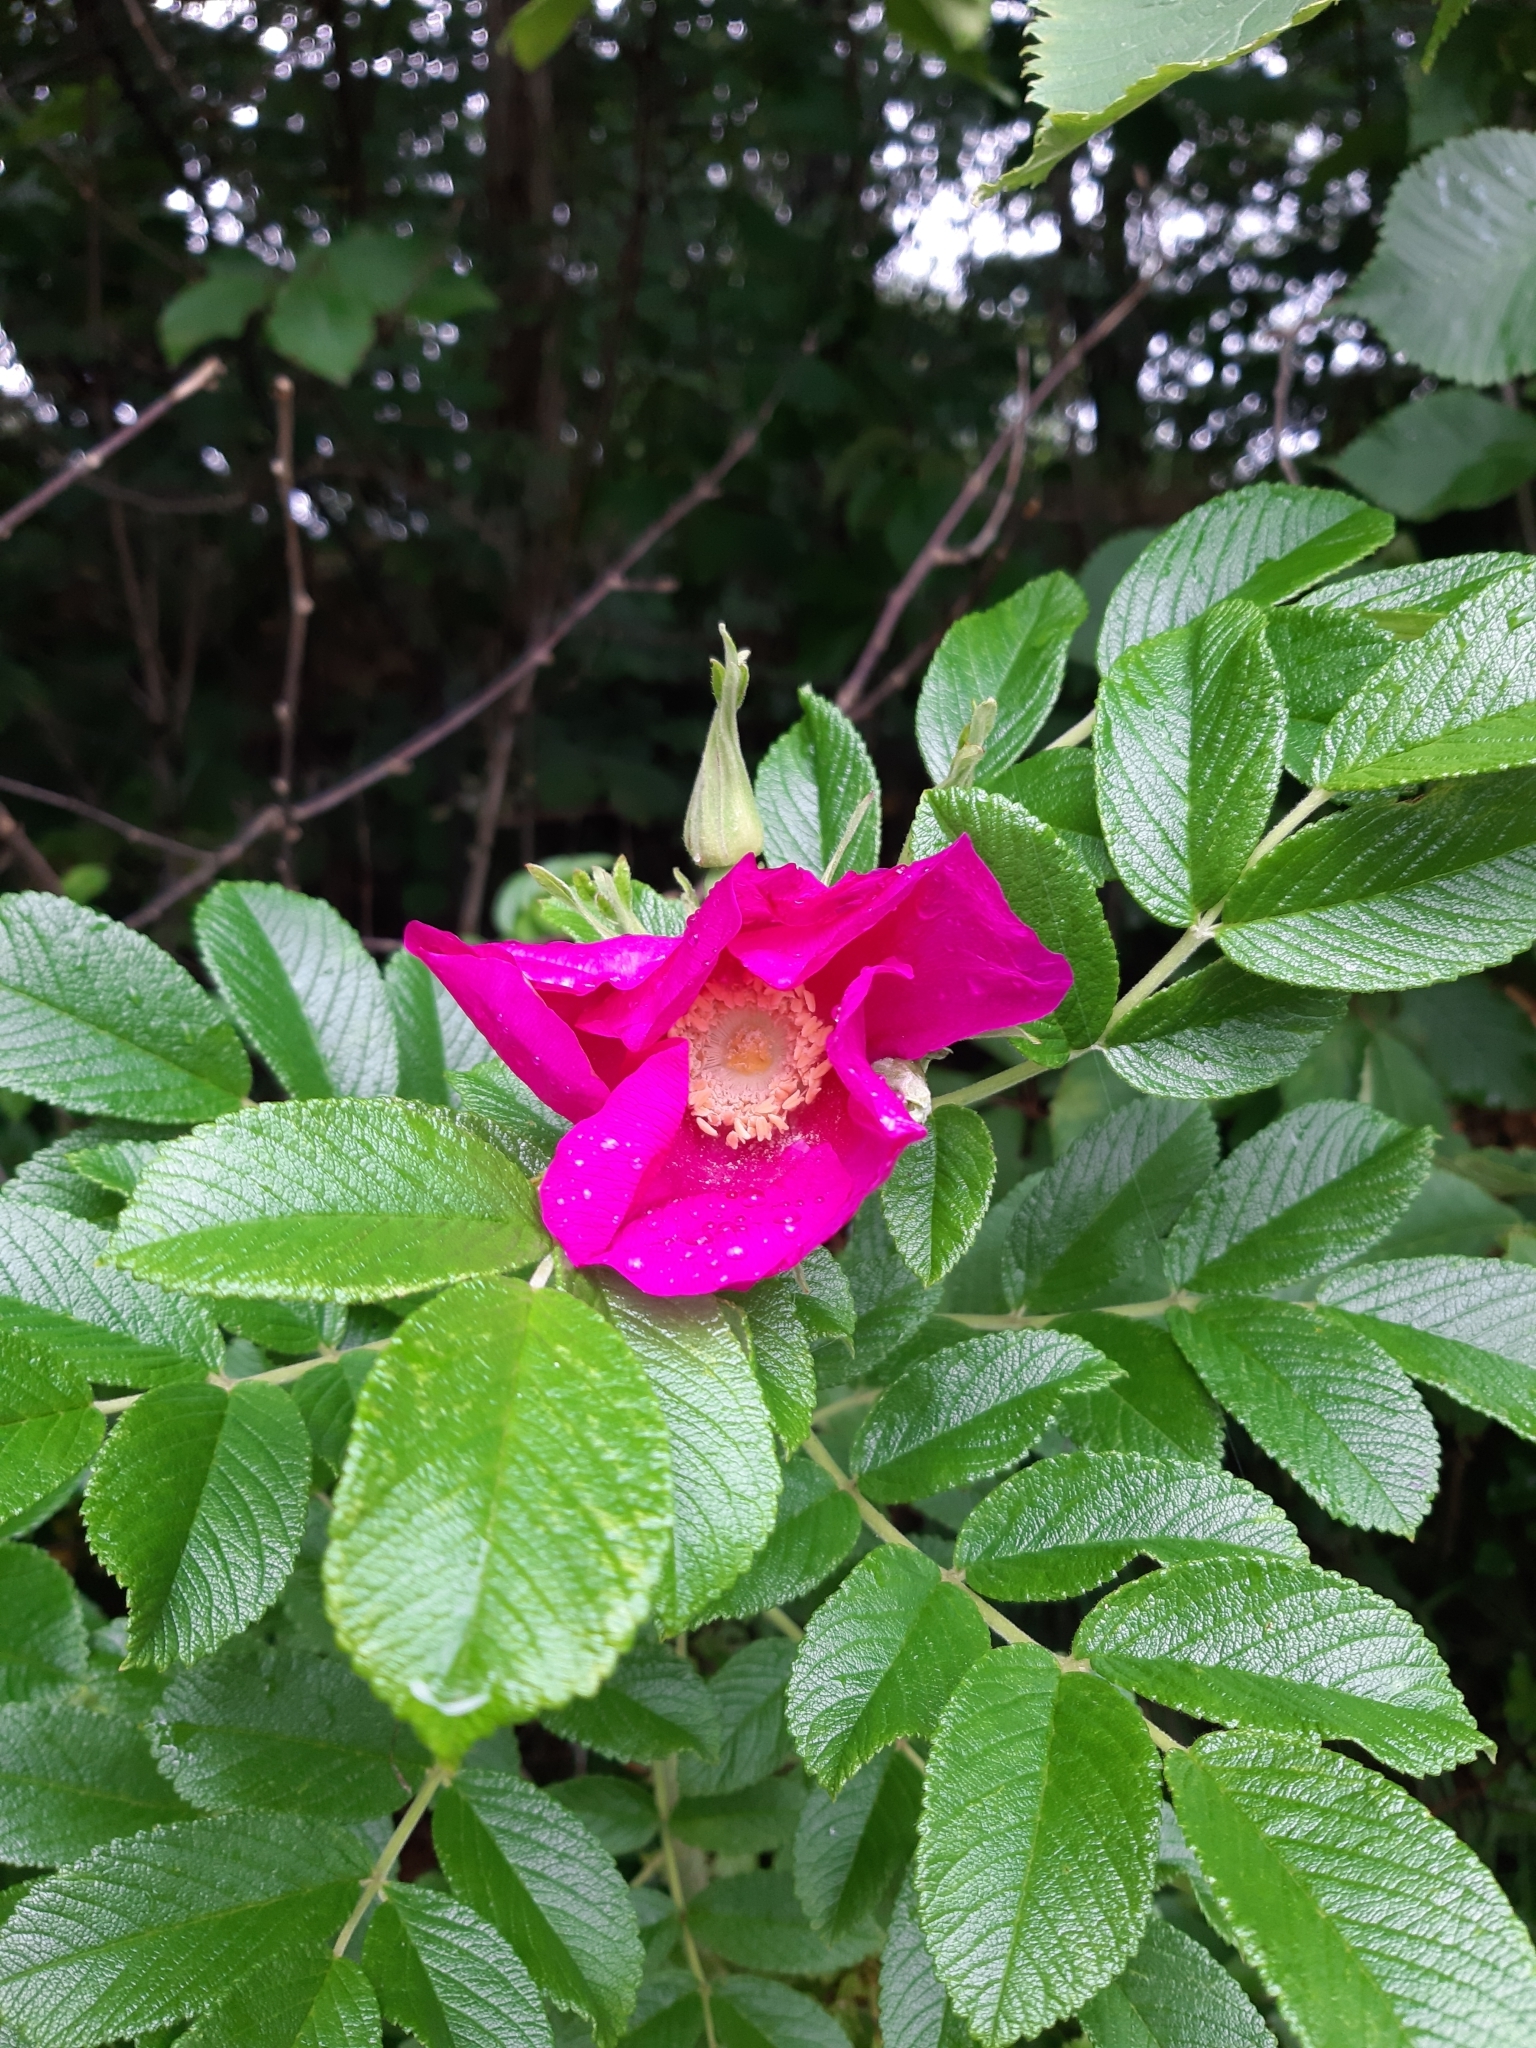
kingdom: Plantae
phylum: Tracheophyta
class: Magnoliopsida
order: Rosales
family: Rosaceae
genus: Rosa
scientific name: Rosa rugosa
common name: Japanese rose
